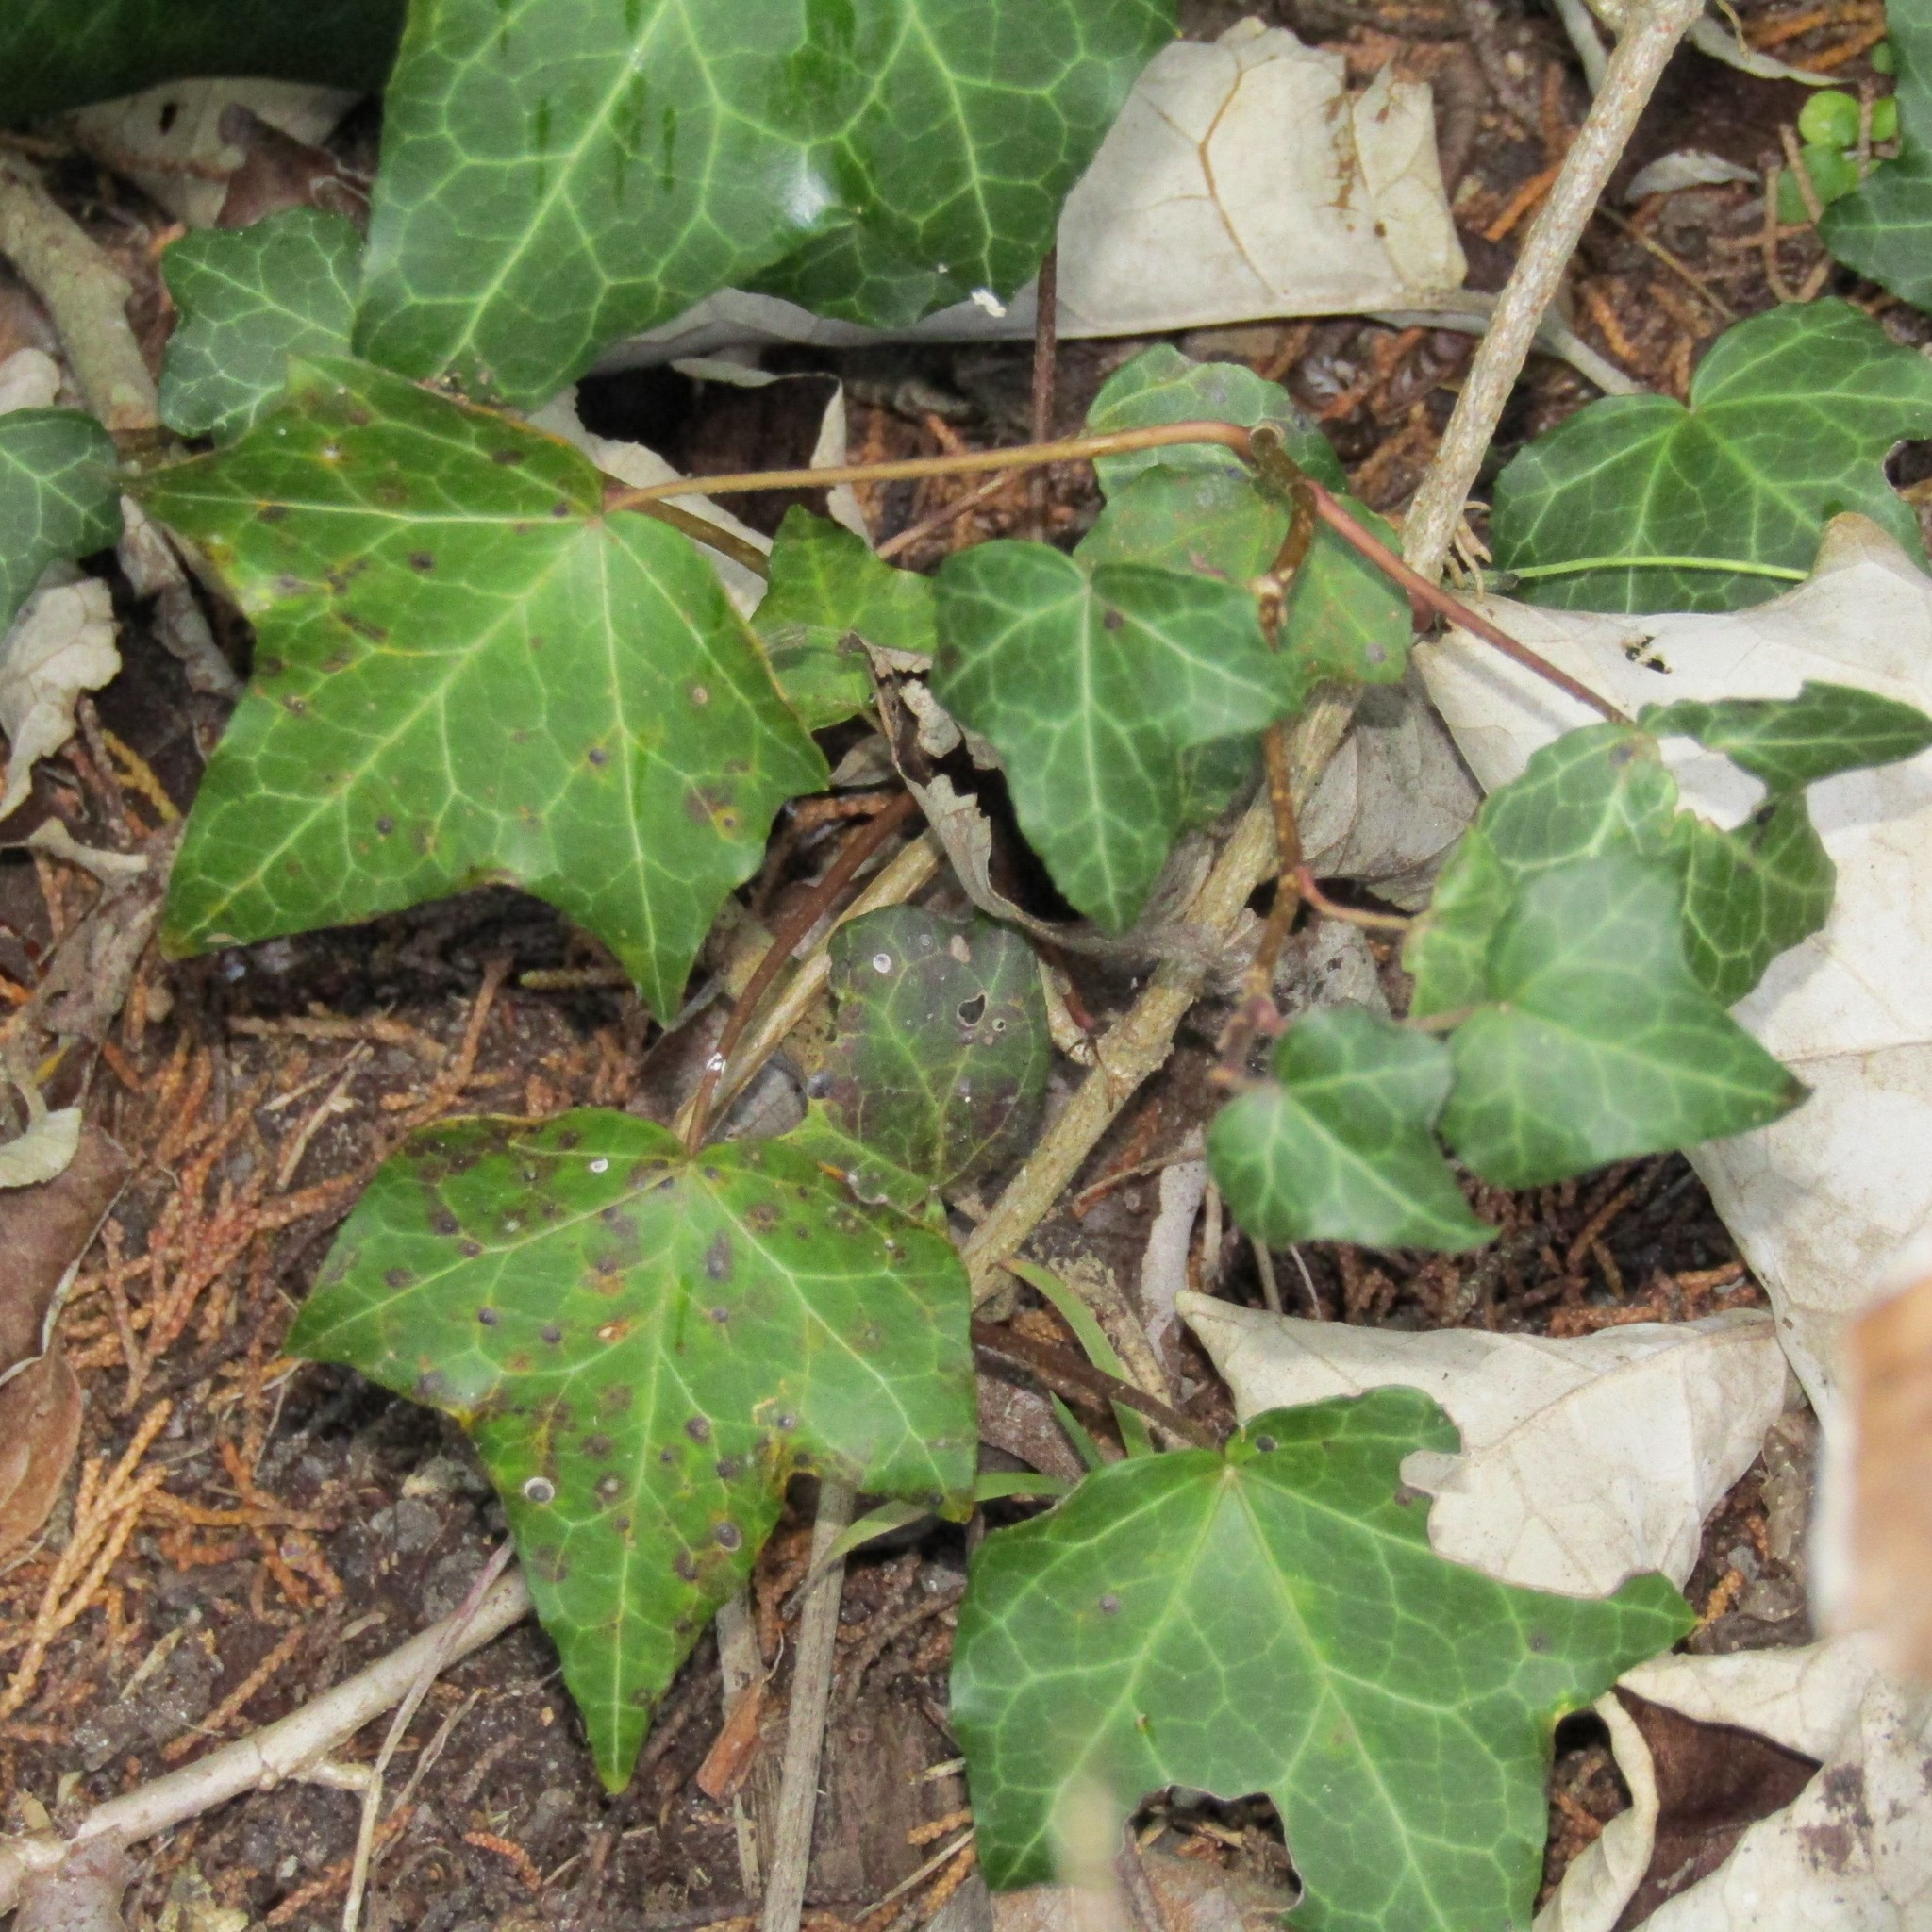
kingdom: Plantae
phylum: Tracheophyta
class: Magnoliopsida
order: Apiales
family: Araliaceae
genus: Hedera
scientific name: Hedera helix
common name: Ivy
